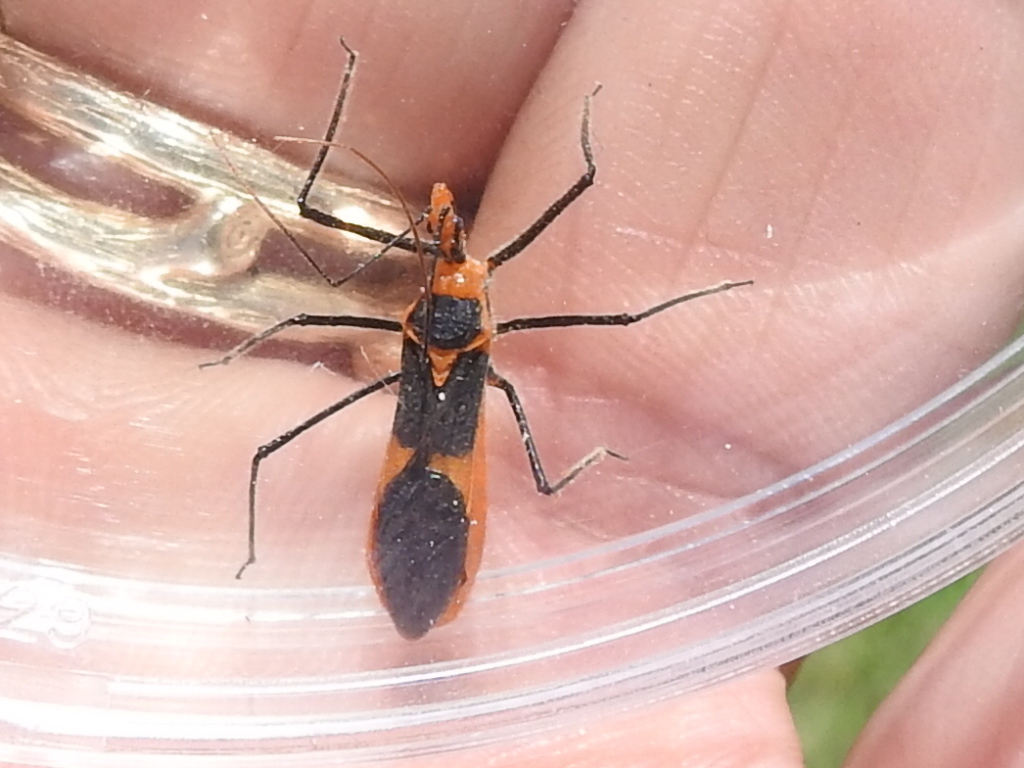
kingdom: Animalia
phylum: Arthropoda
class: Insecta
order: Hemiptera
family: Reduviidae
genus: Zelus
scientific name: Zelus longipes
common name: Milkweed assassin bug
